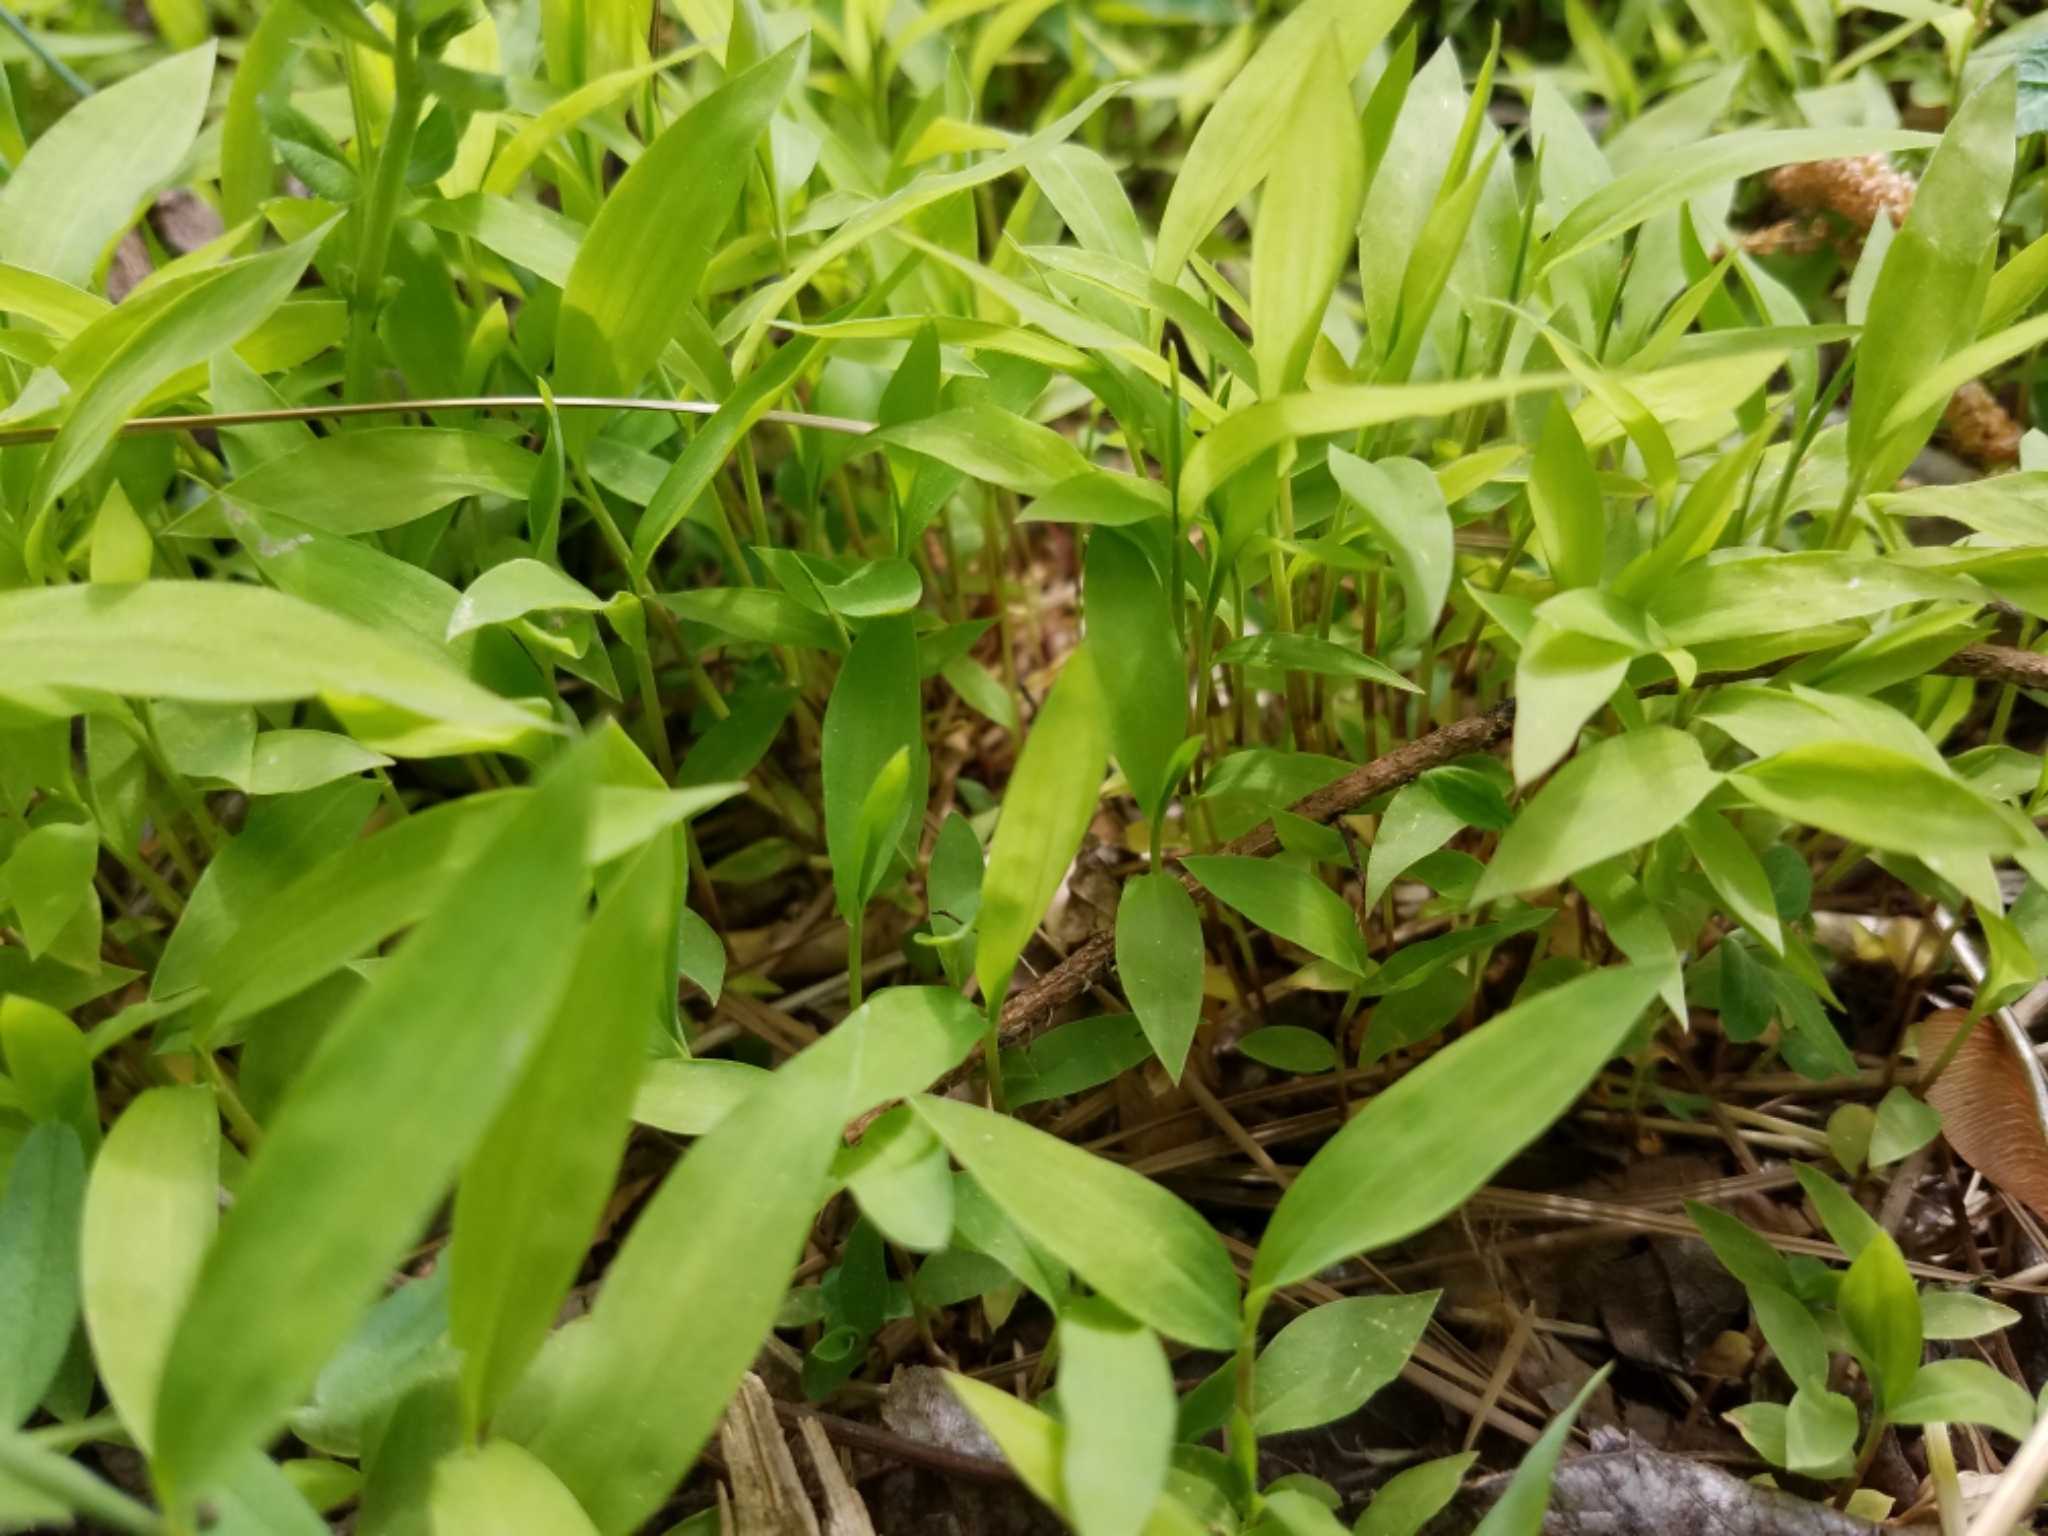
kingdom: Plantae
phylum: Tracheophyta
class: Liliopsida
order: Poales
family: Poaceae
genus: Microstegium
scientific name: Microstegium vimineum
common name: Japanese stiltgrass
